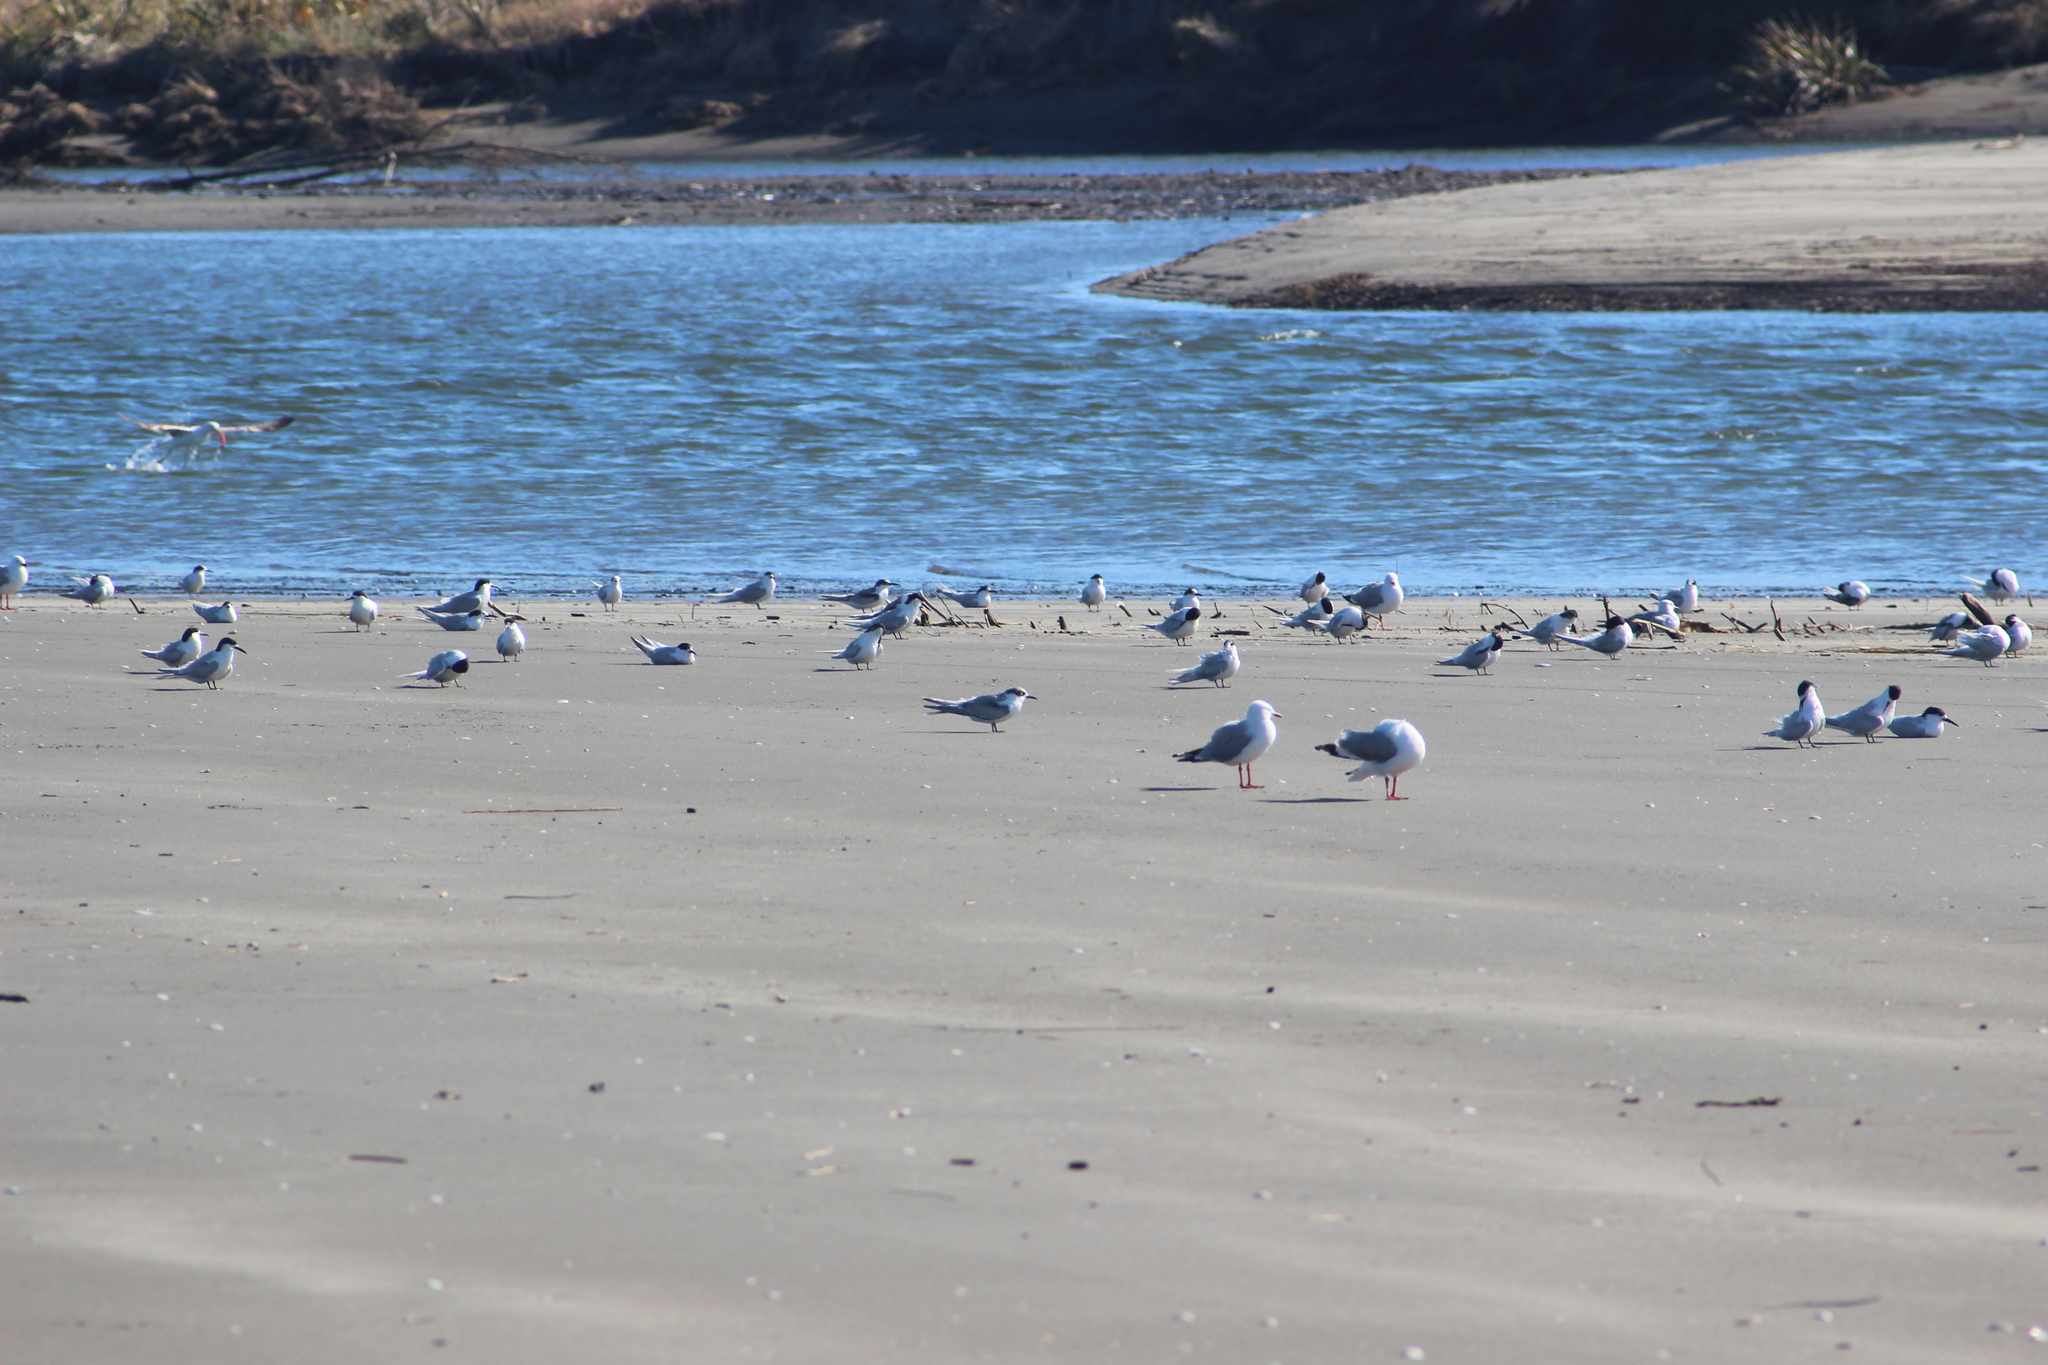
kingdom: Animalia
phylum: Chordata
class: Aves
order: Charadriiformes
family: Laridae
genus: Sterna
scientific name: Sterna striata
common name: White-fronted tern
